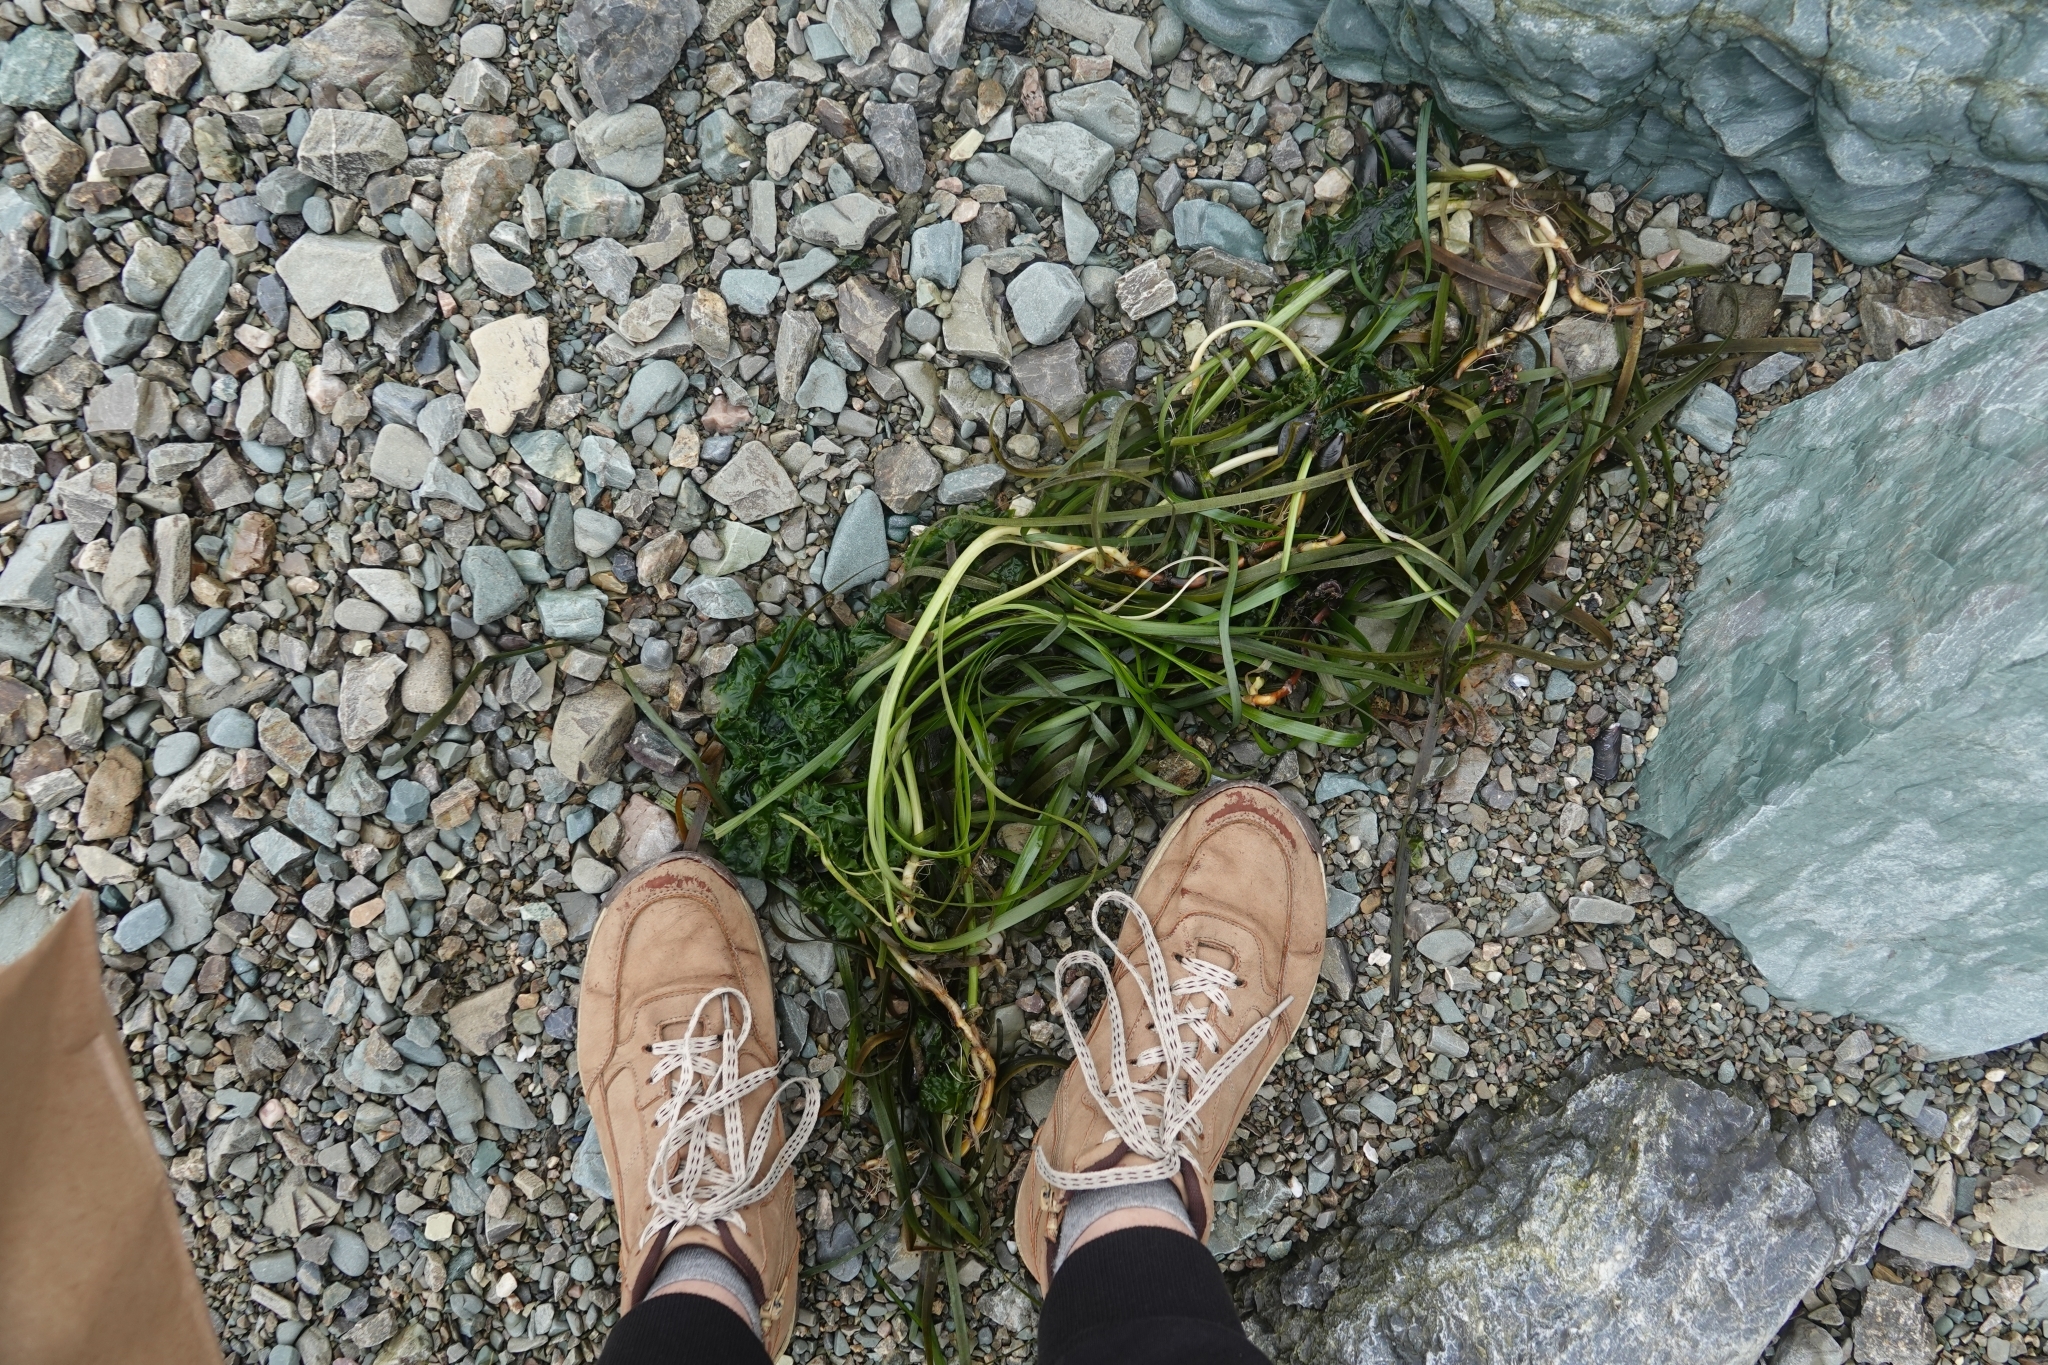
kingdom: Plantae
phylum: Tracheophyta
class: Liliopsida
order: Alismatales
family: Zosteraceae
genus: Zostera
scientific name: Zostera marina
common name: Eelgrass
